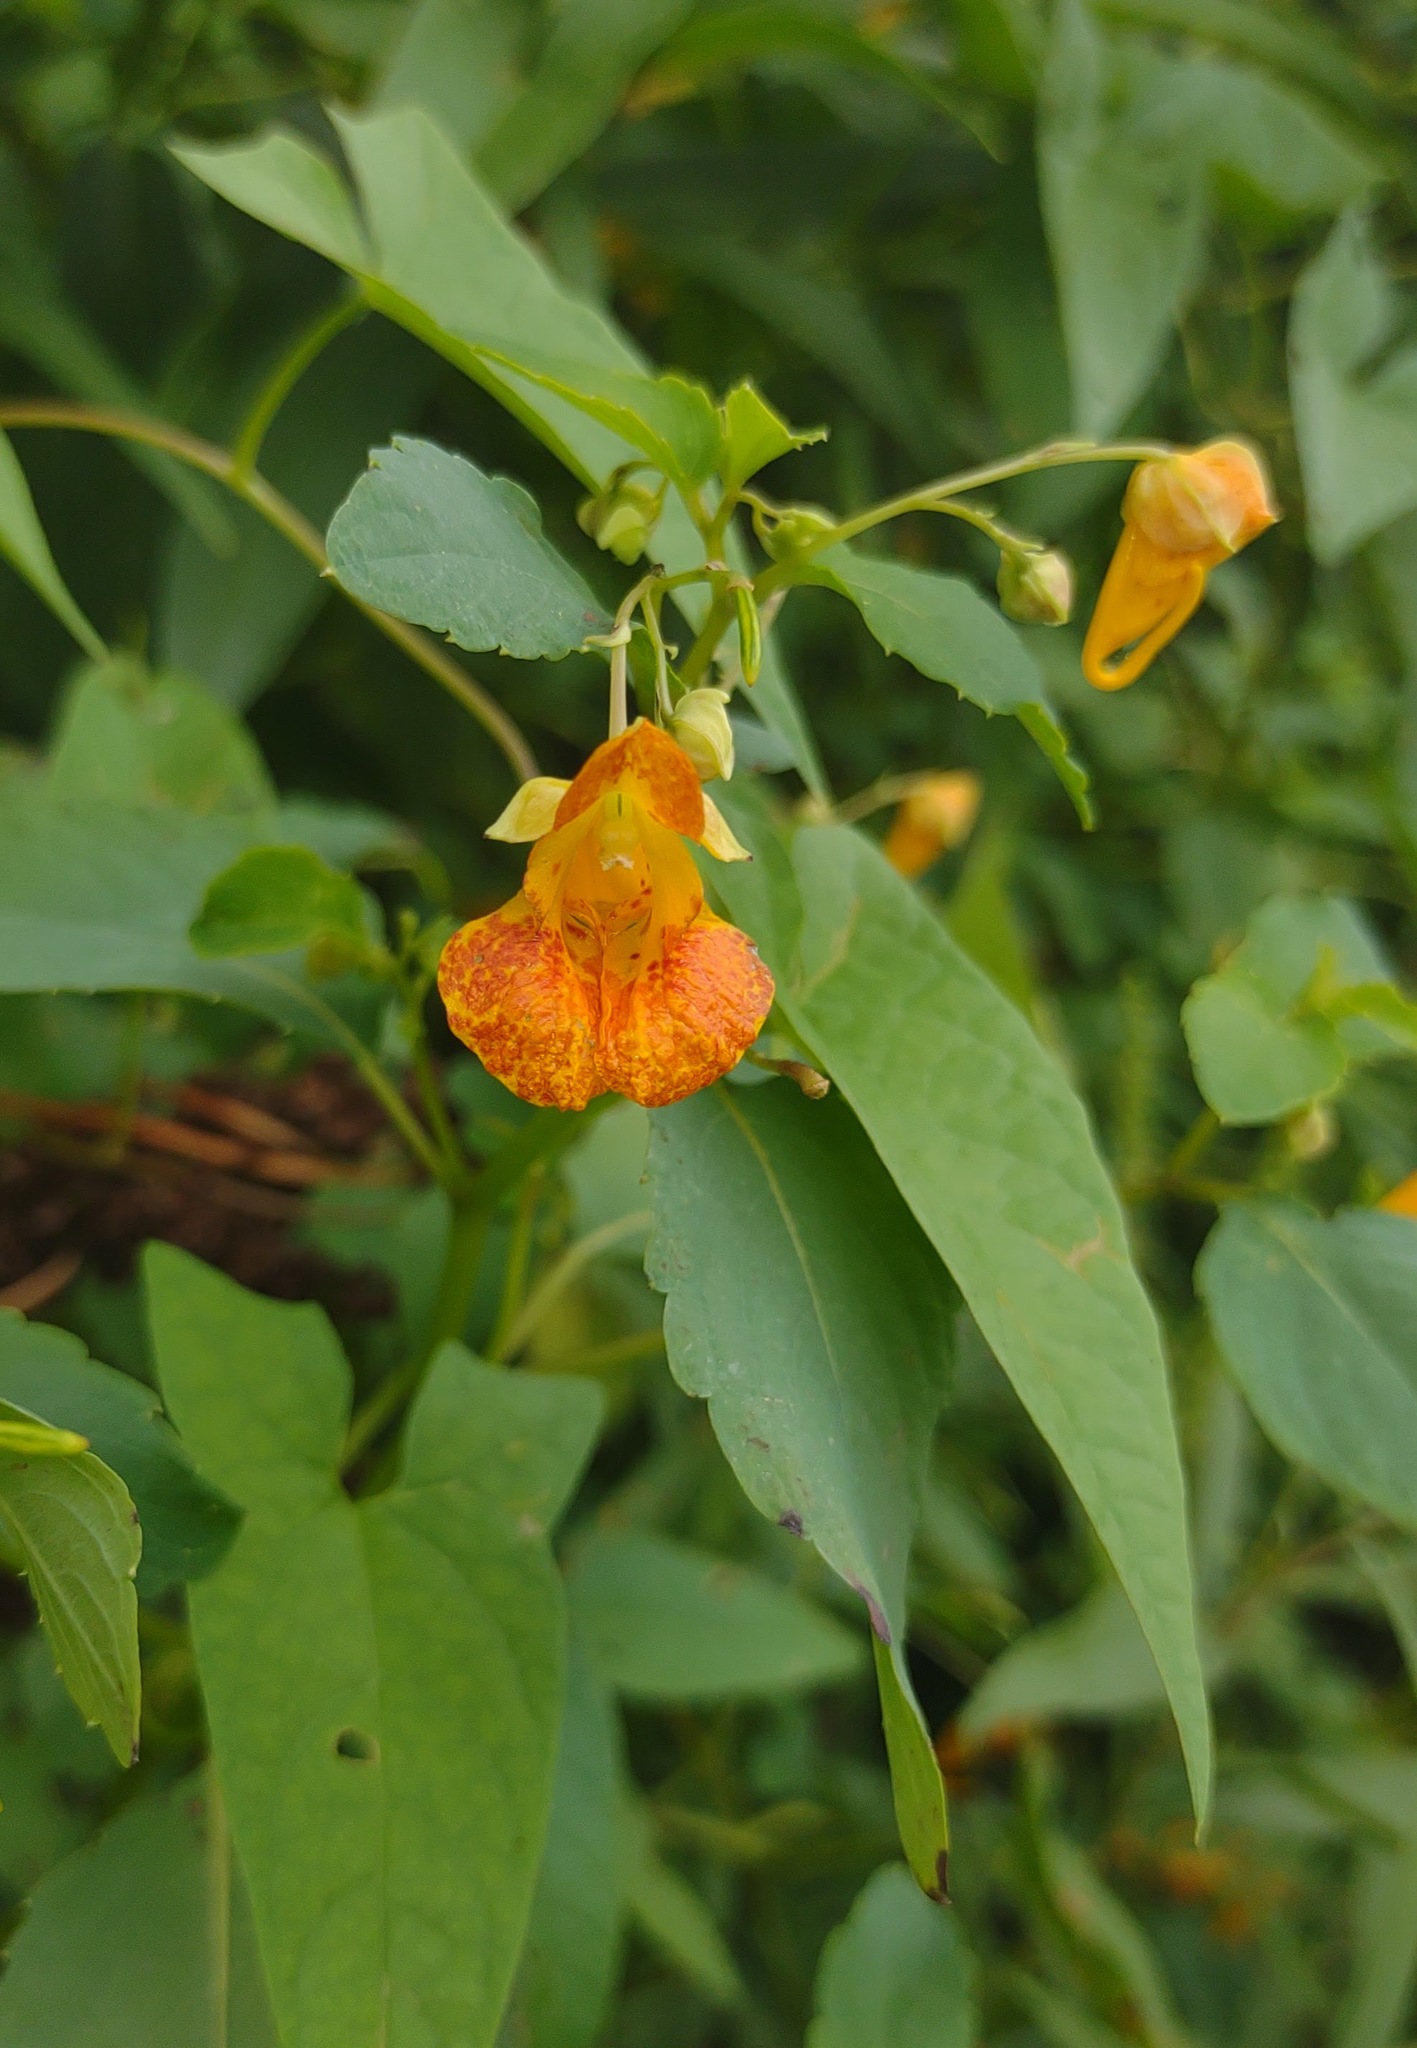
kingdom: Plantae
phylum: Tracheophyta
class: Magnoliopsida
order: Ericales
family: Balsaminaceae
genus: Impatiens
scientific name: Impatiens capensis
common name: Orange balsam
